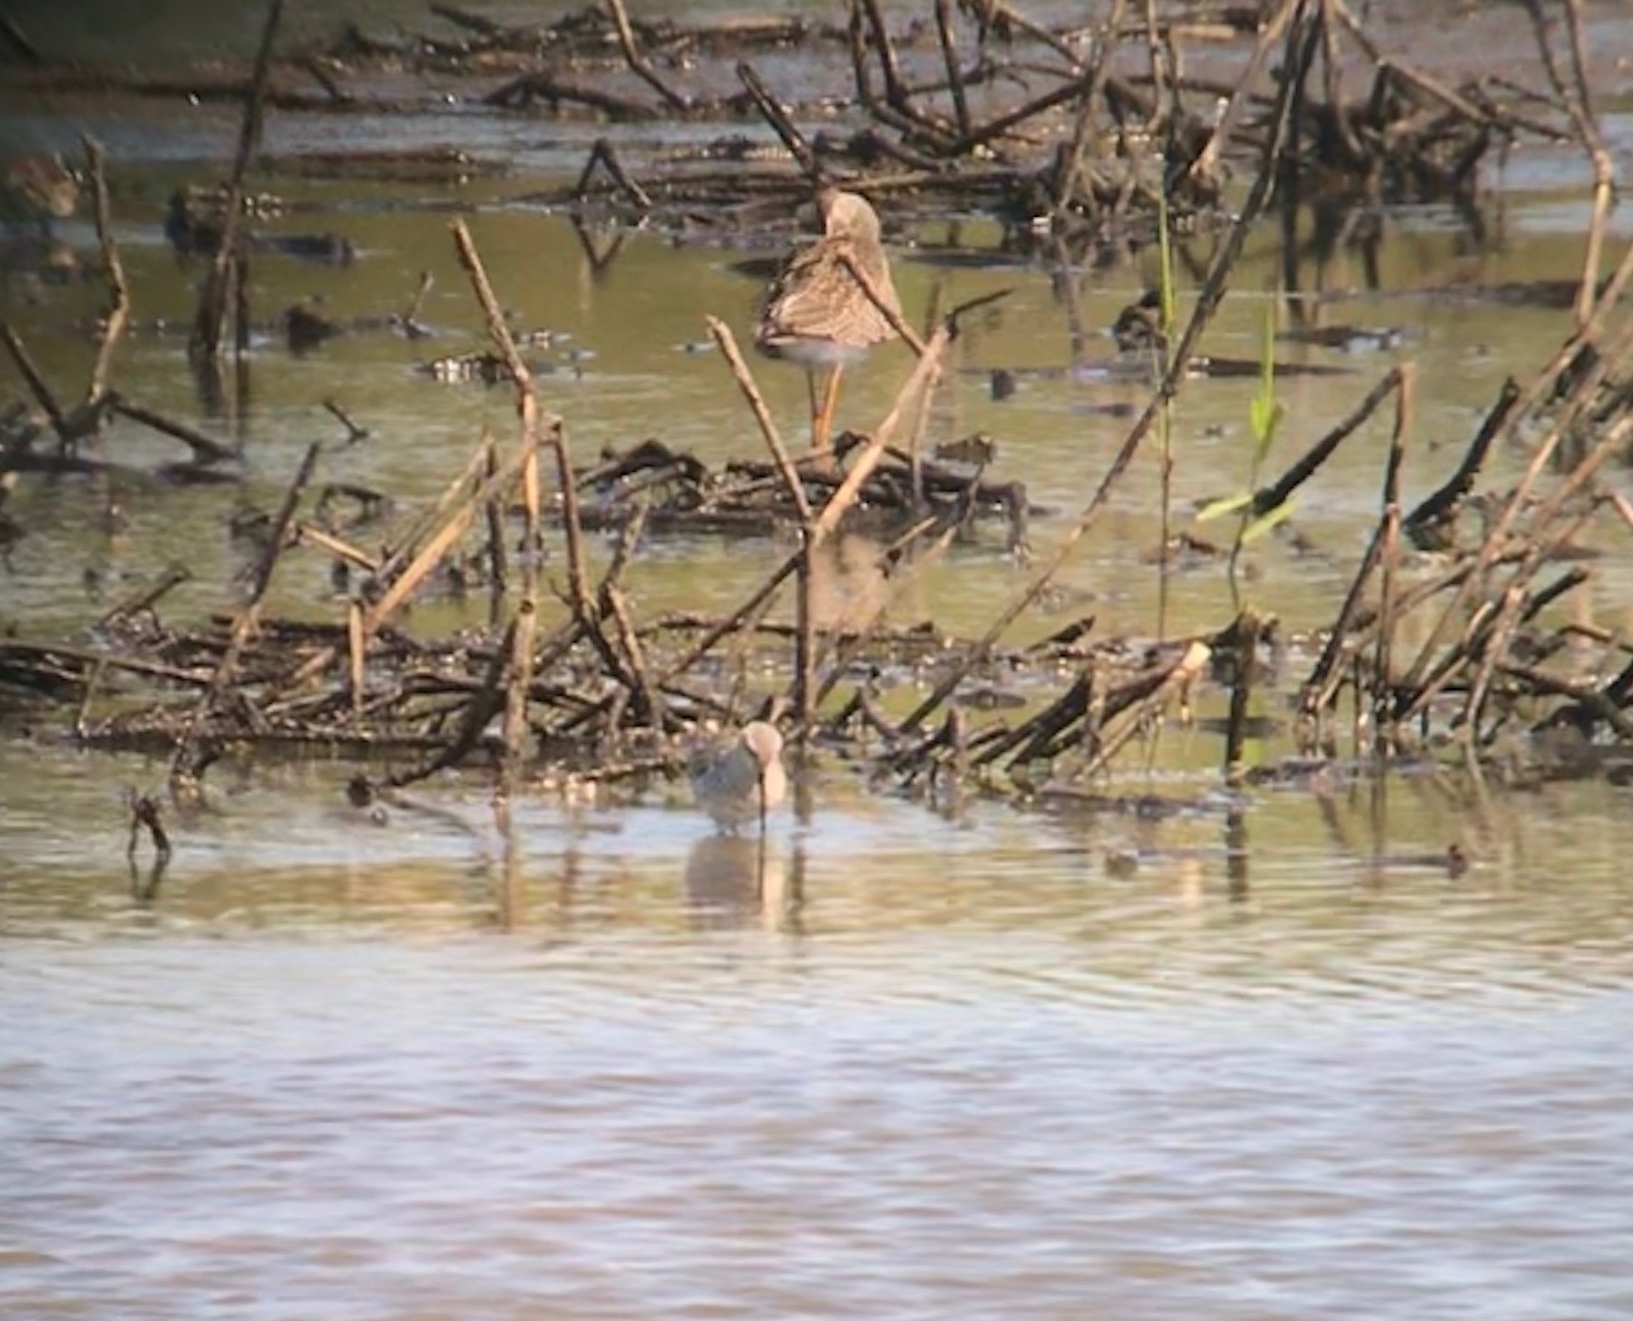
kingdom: Animalia
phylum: Chordata
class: Aves
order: Charadriiformes
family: Scolopacidae
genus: Calidris
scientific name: Calidris himantopus
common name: Stilt sandpiper
